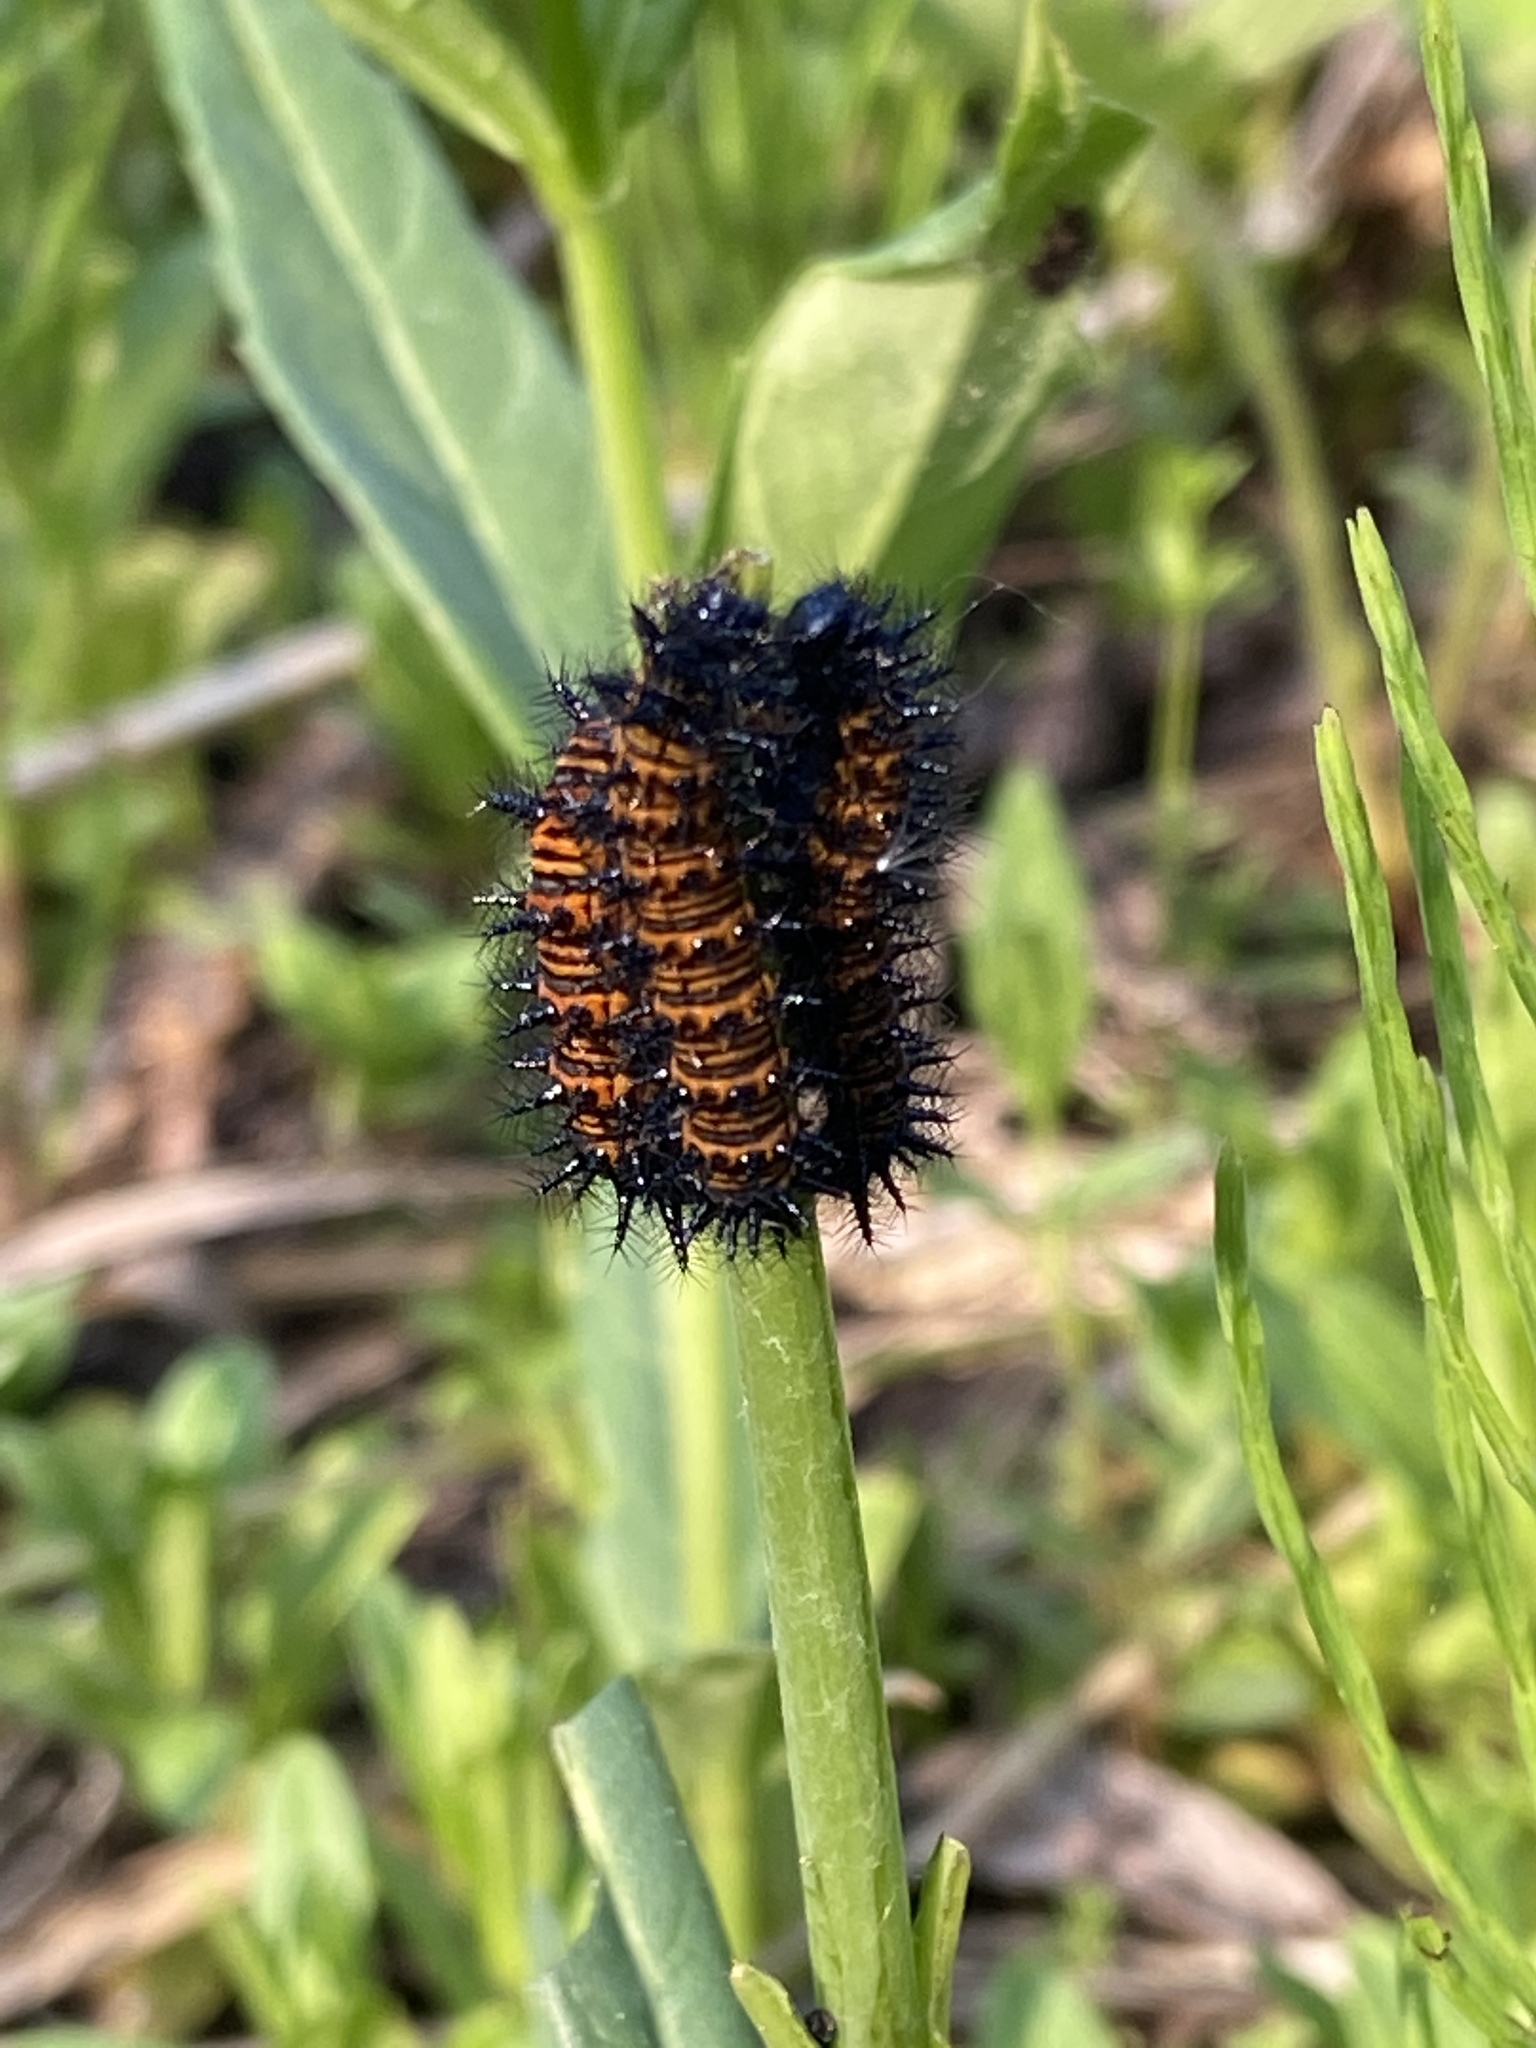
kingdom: Animalia
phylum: Arthropoda
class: Insecta
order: Lepidoptera
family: Nymphalidae
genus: Euphydryas
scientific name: Euphydryas phaeton
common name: Baltimore checkerspot
